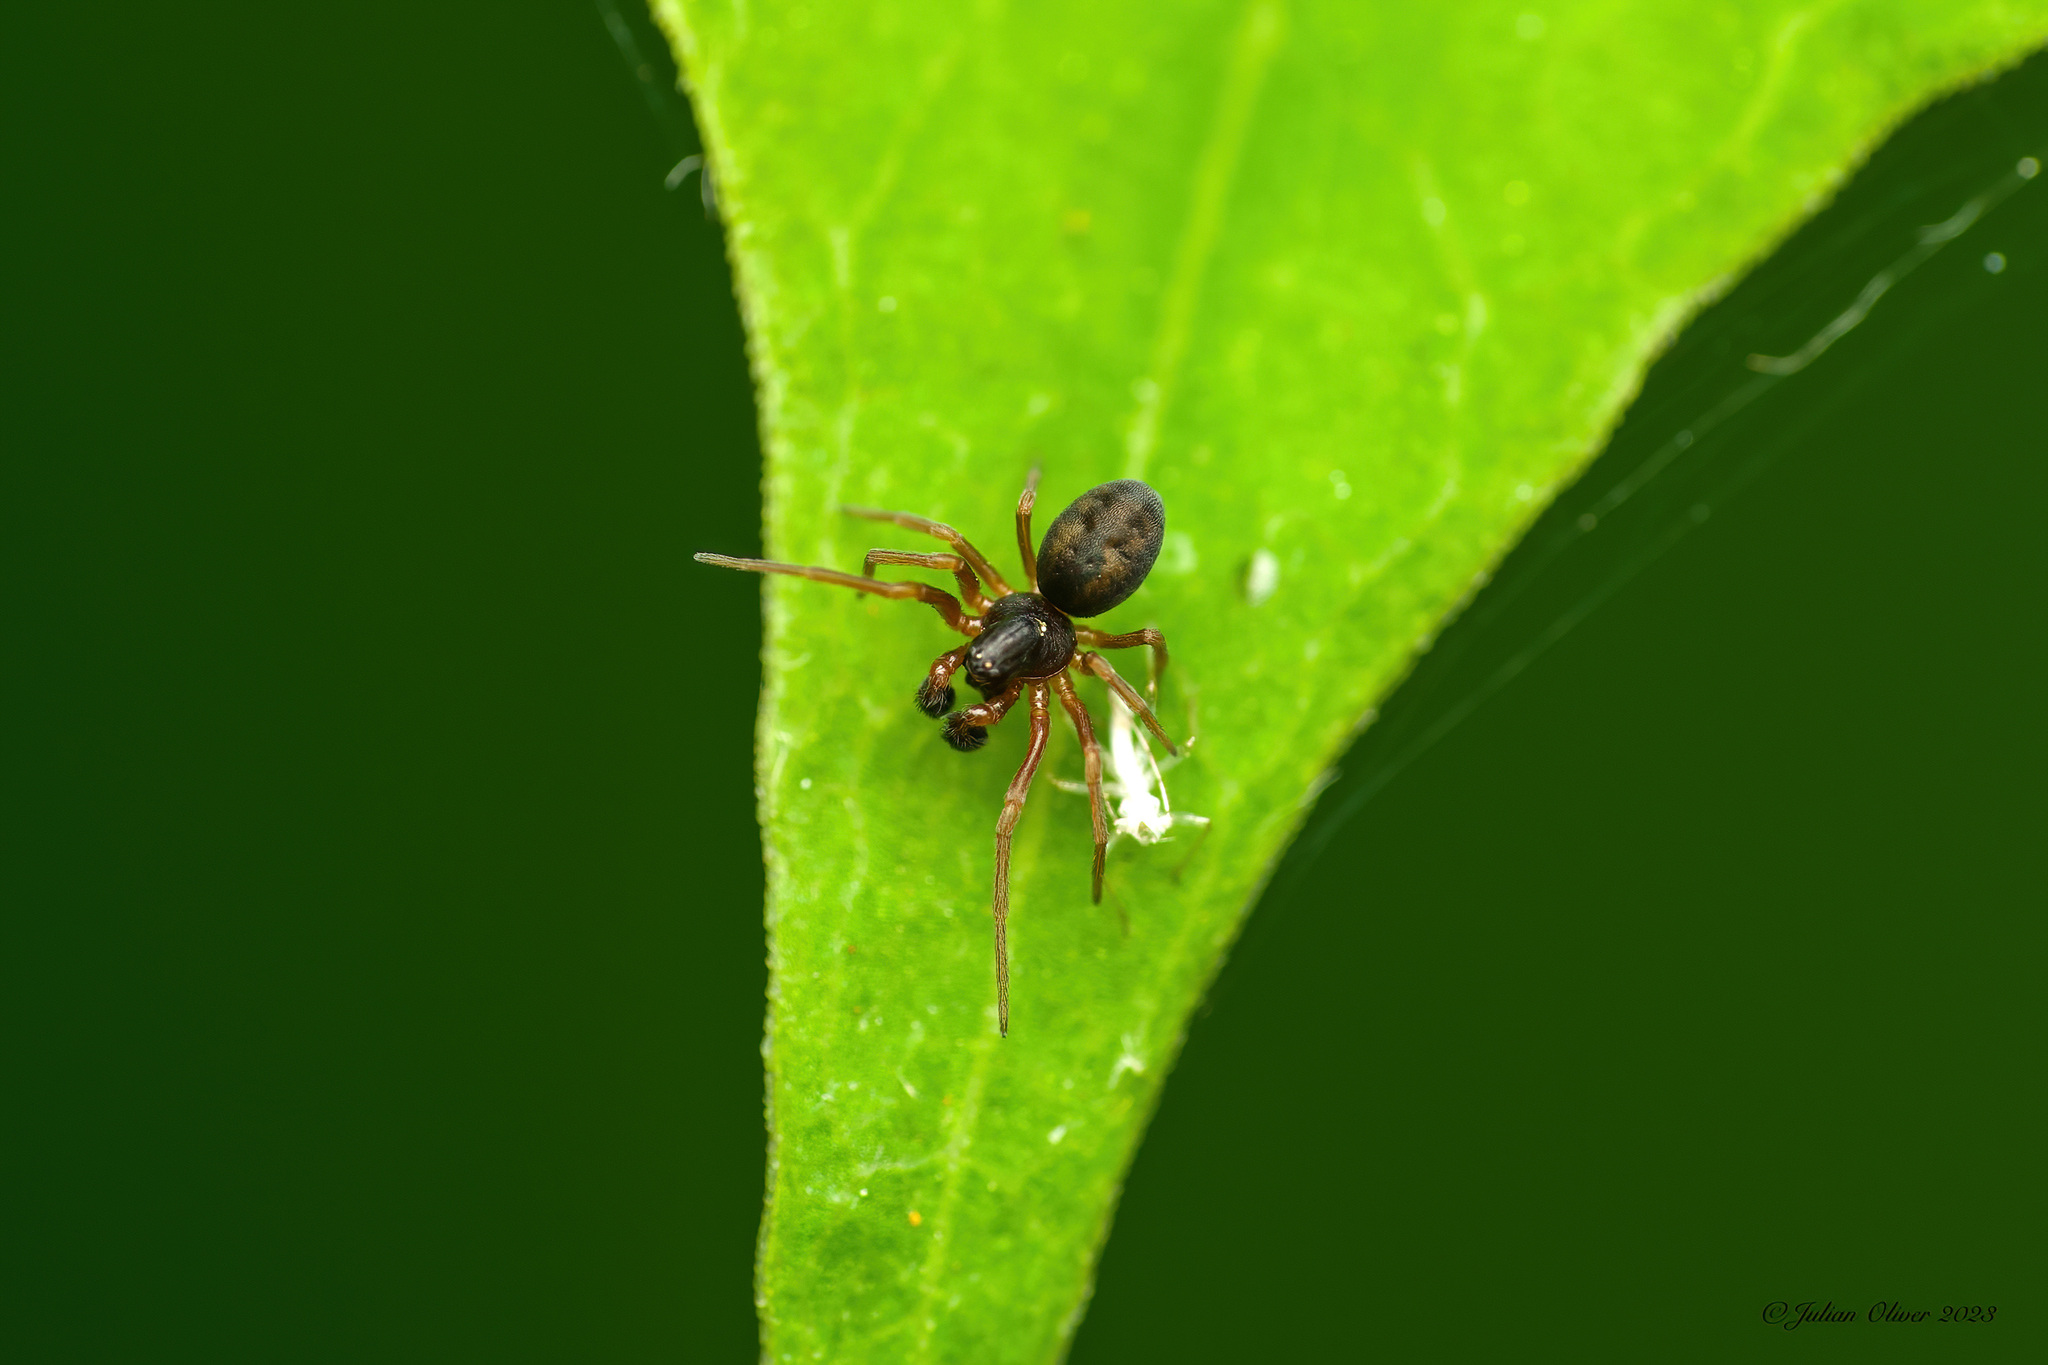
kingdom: Animalia
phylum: Arthropoda
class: Arachnida
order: Araneae
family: Dictynidae
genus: Dictyna
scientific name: Dictyna uncinata
